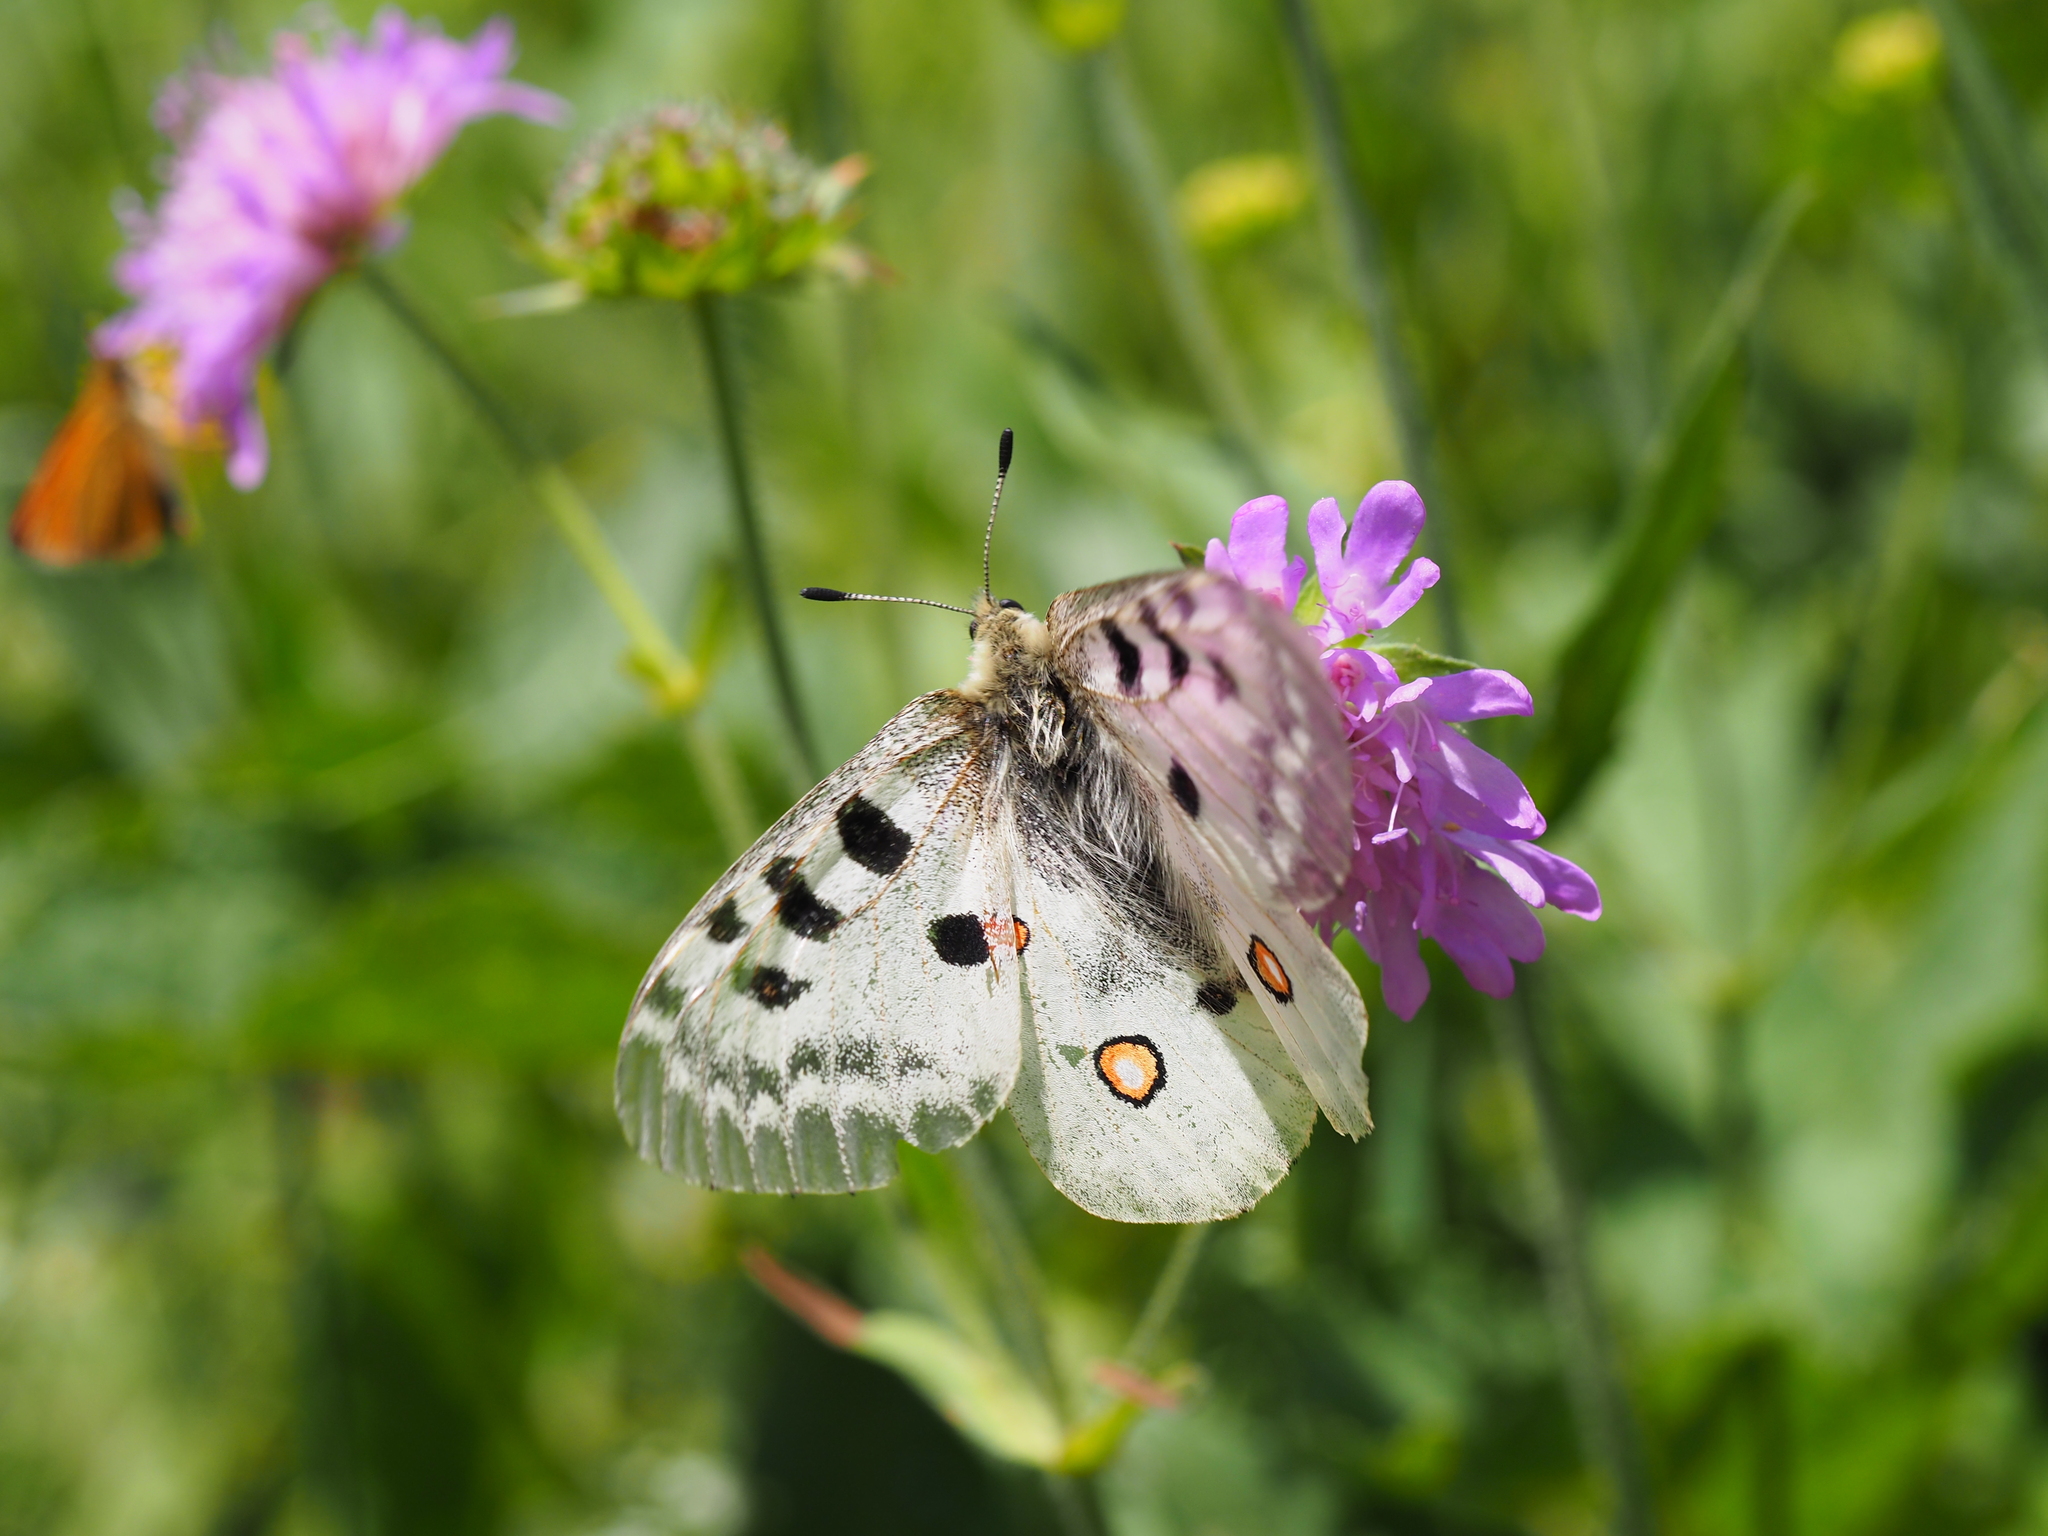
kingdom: Animalia
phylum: Arthropoda
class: Insecta
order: Lepidoptera
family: Papilionidae
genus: Parnassius
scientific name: Parnassius apollo
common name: Apollo
